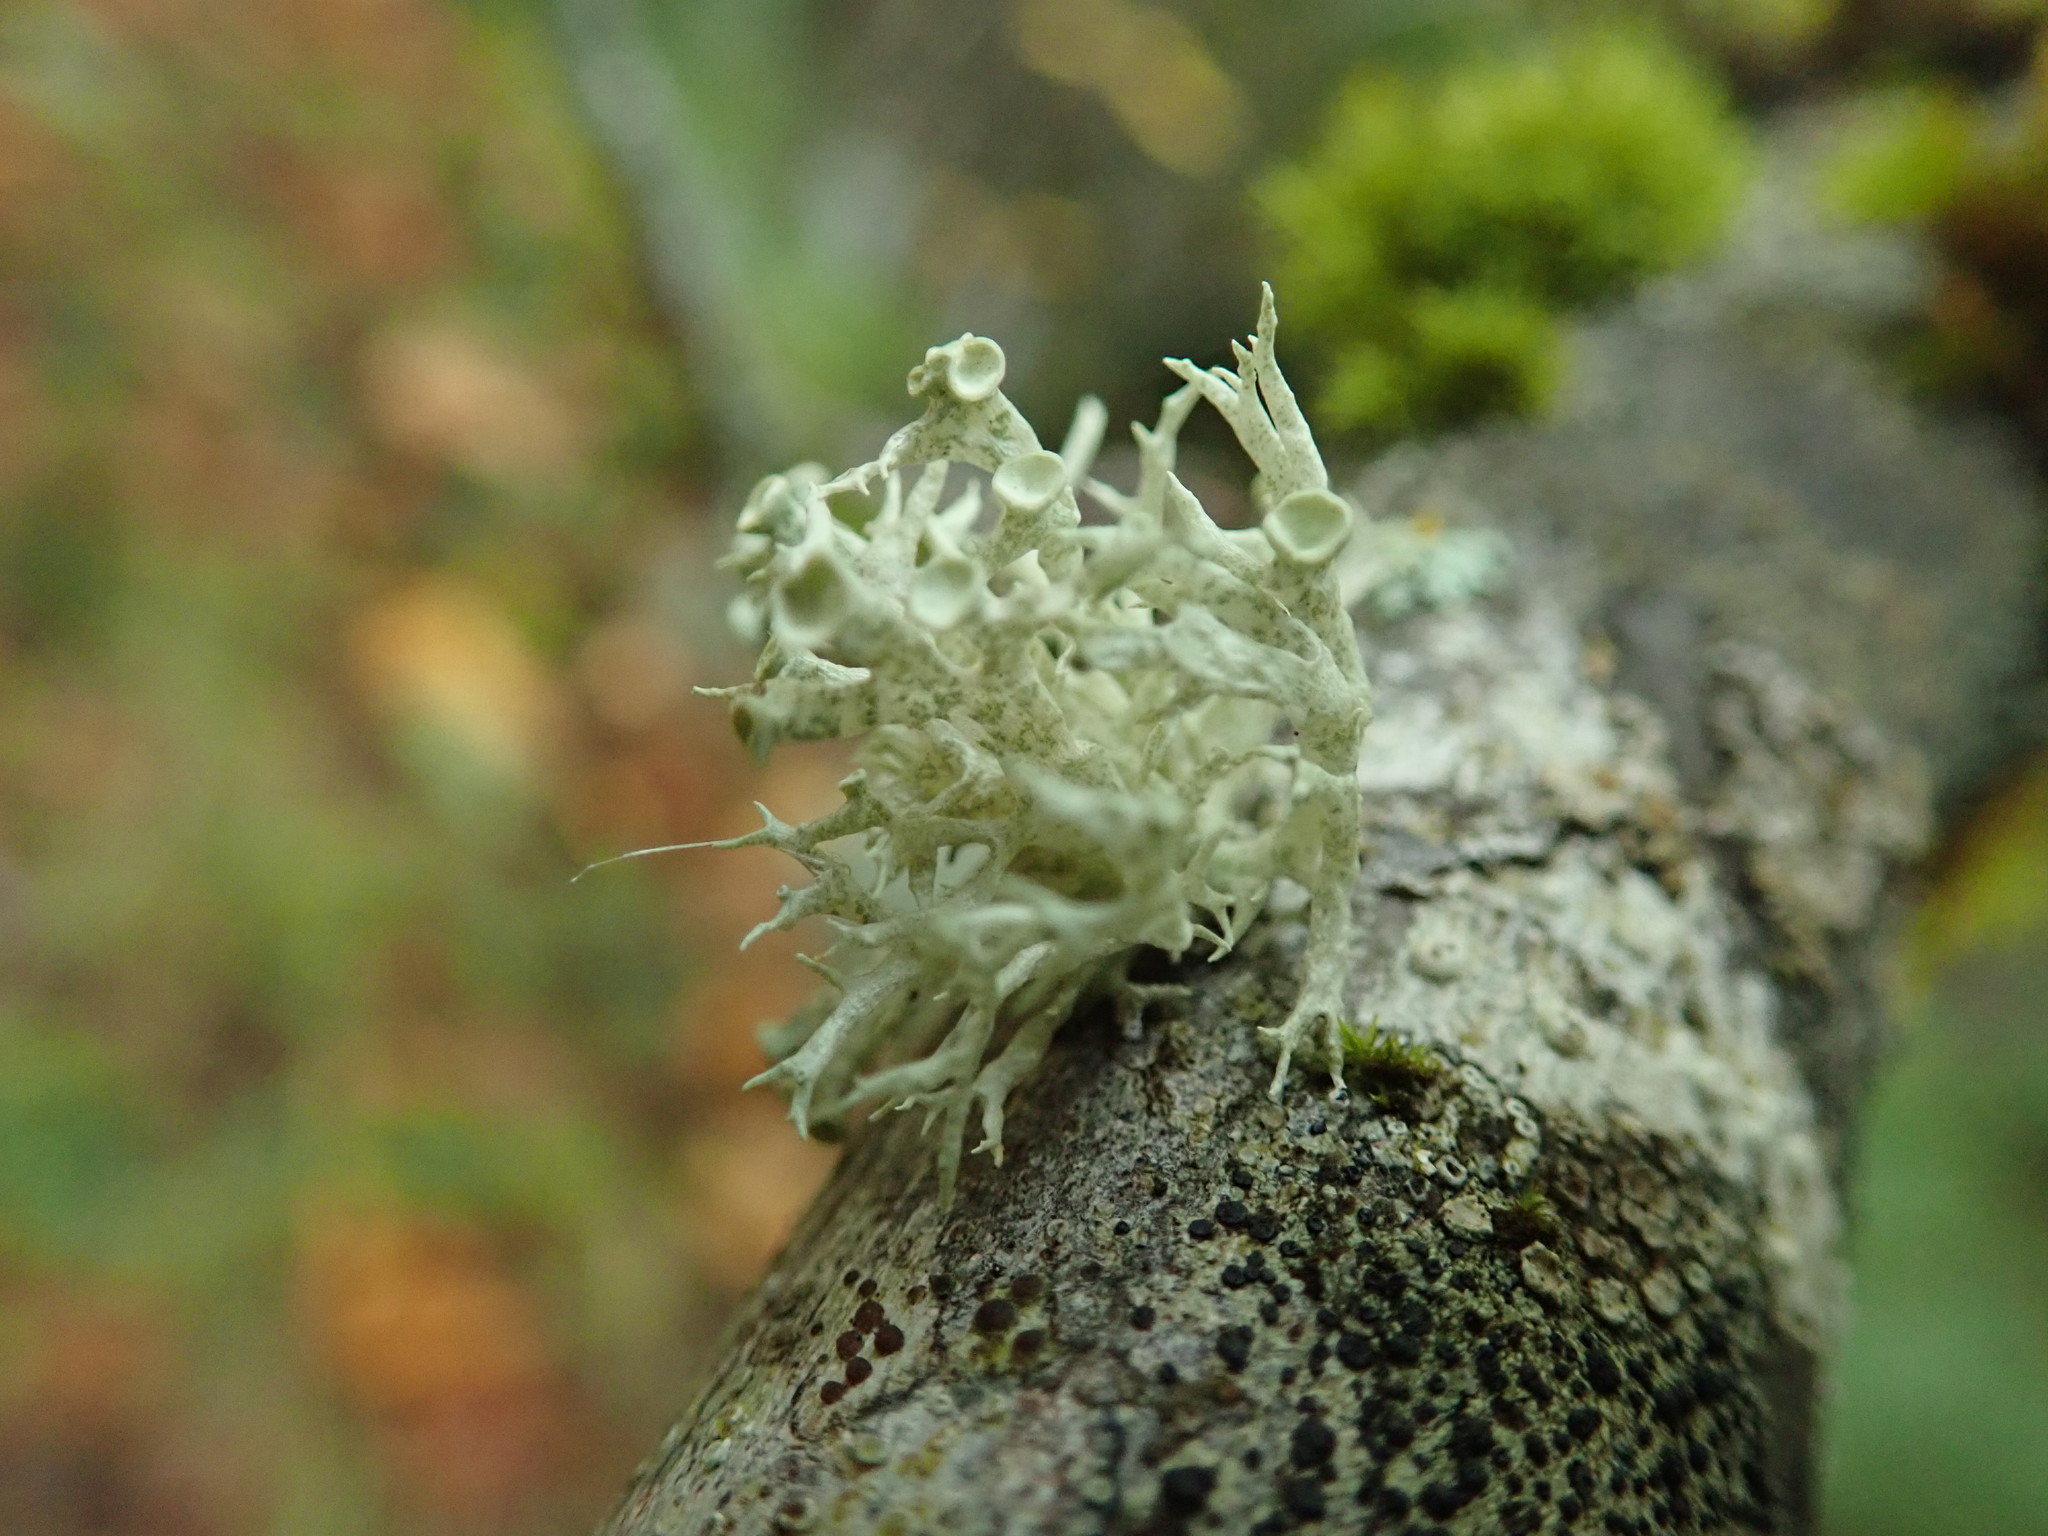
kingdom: Fungi
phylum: Ascomycota
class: Lecanoromycetes
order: Lecanorales
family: Ramalinaceae
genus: Ramalina
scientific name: Ramalina dilacerata
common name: Punctured bushy lichen
